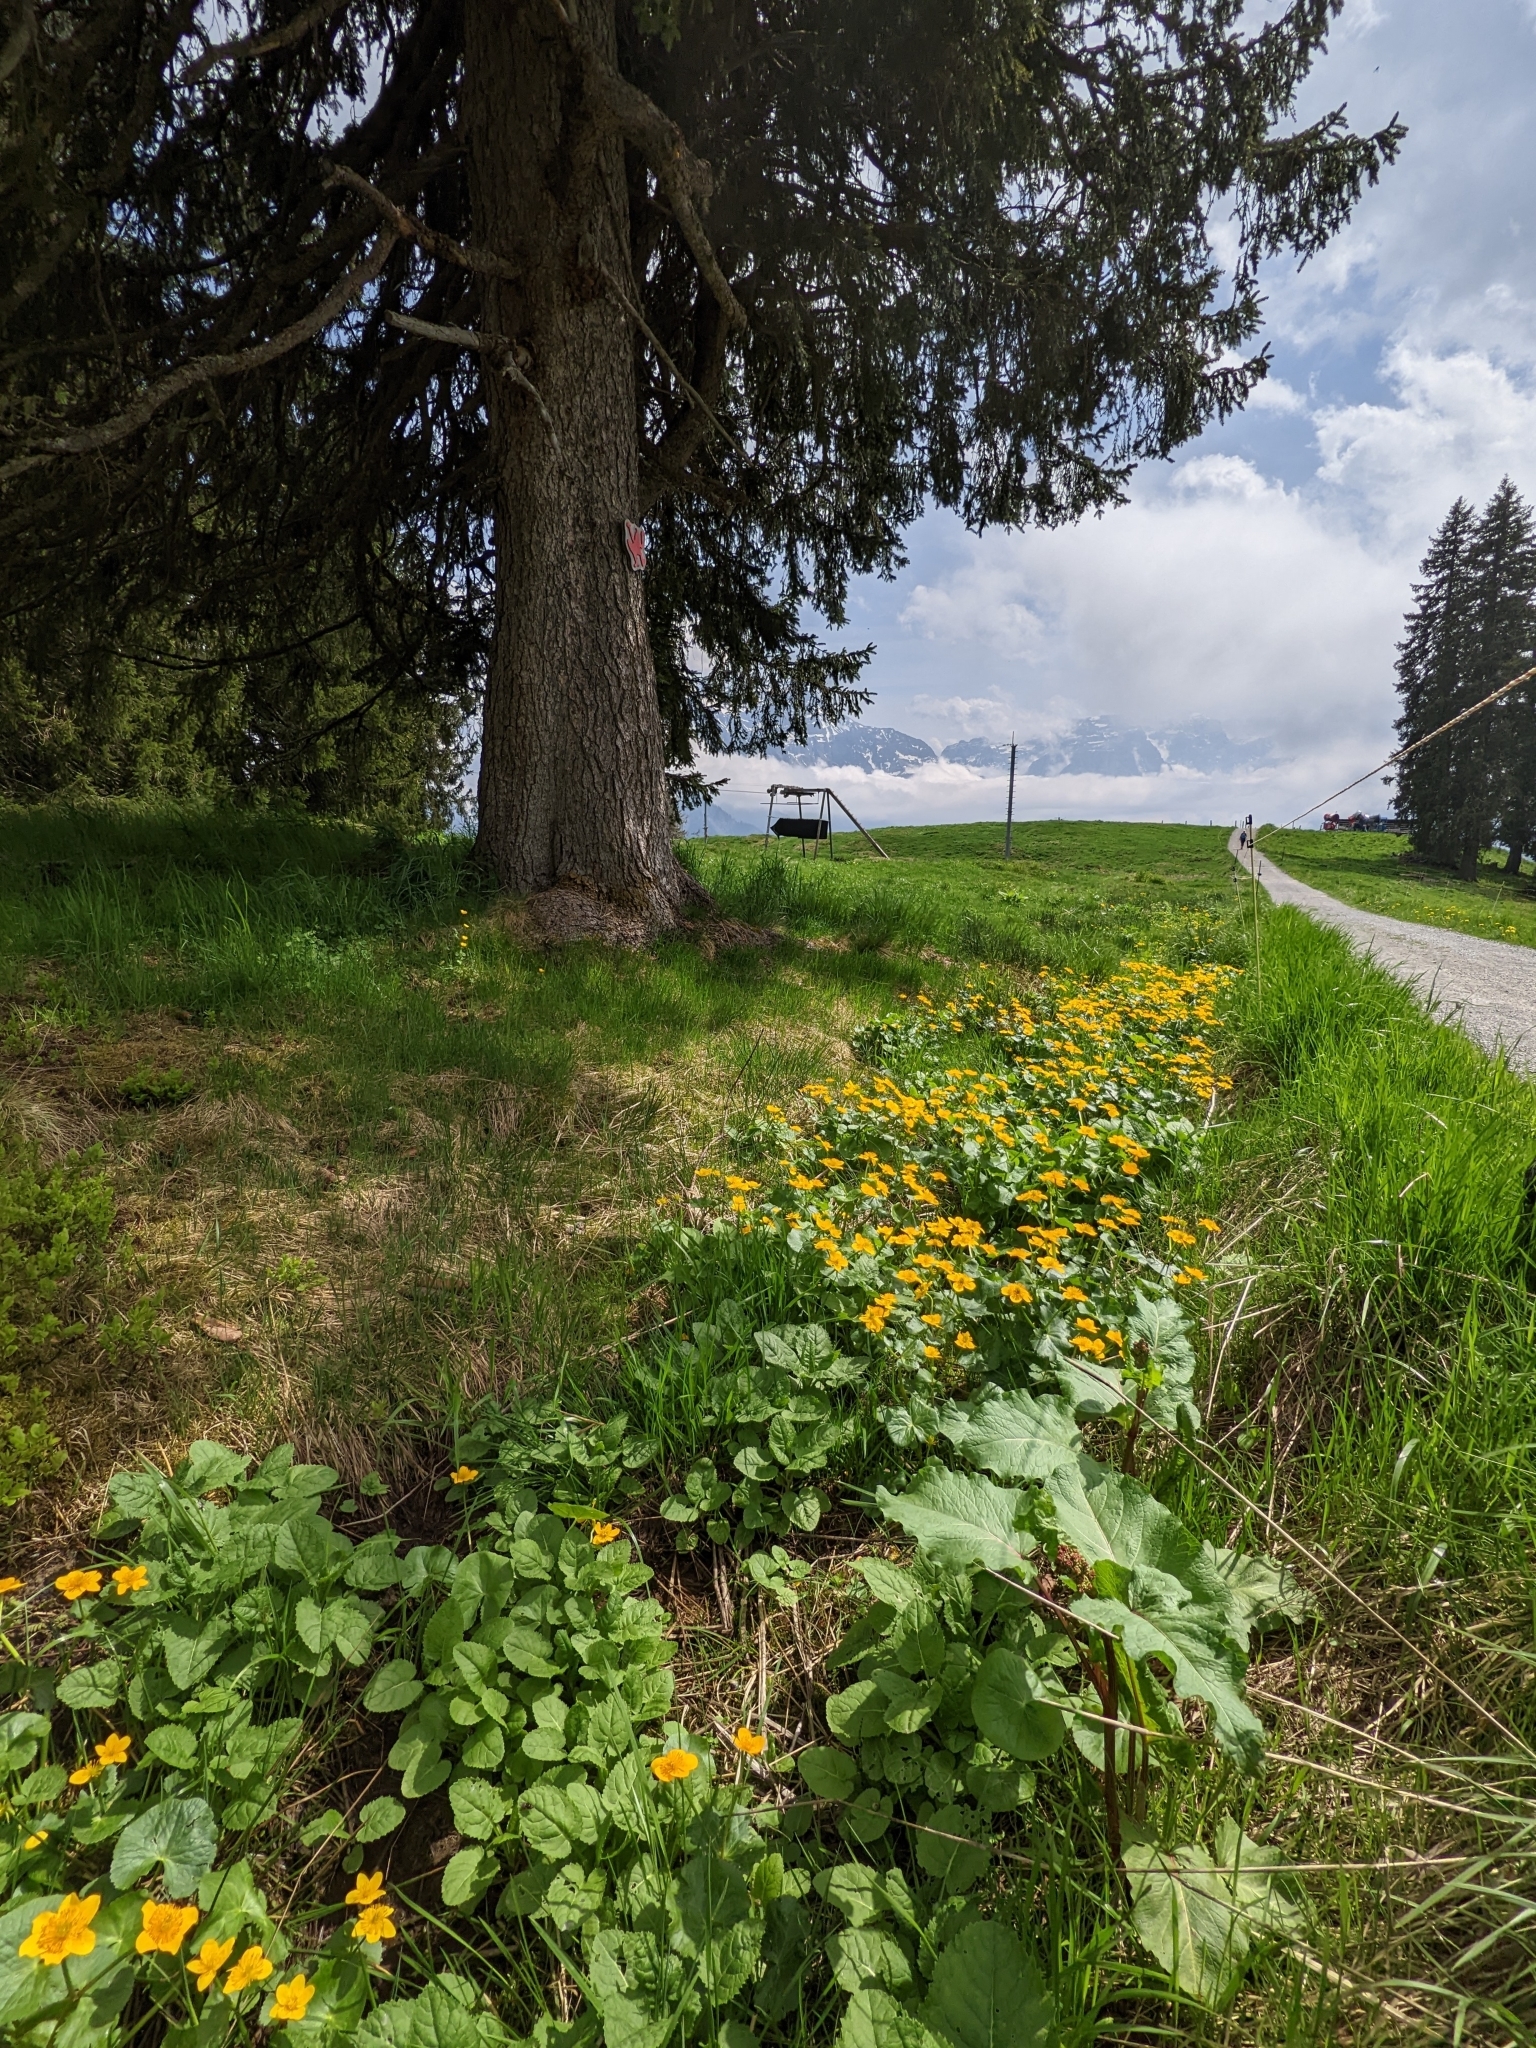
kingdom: Plantae
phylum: Tracheophyta
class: Magnoliopsida
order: Ranunculales
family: Ranunculaceae
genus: Caltha
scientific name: Caltha palustris
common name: Marsh marigold
